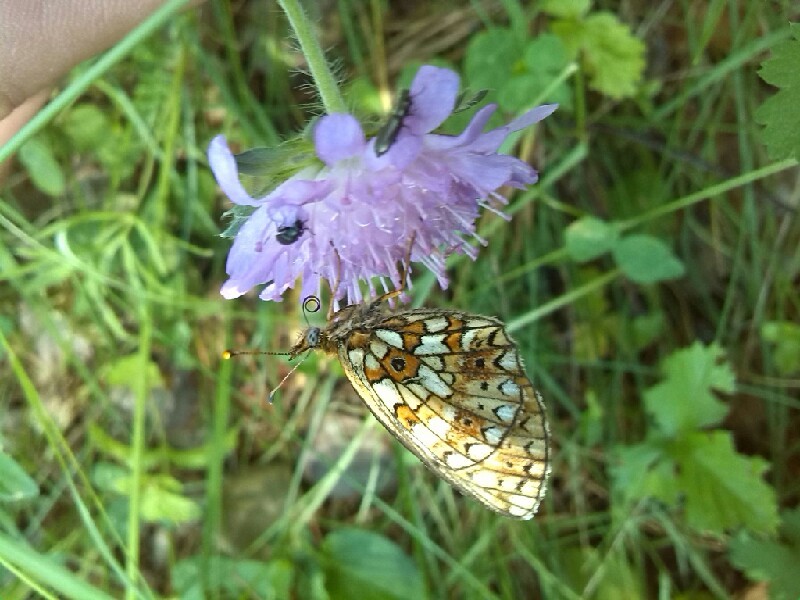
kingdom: Animalia
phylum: Arthropoda
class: Insecta
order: Lepidoptera
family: Nymphalidae
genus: Boloria
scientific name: Boloria selene
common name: Small pearl-bordered fritillary
